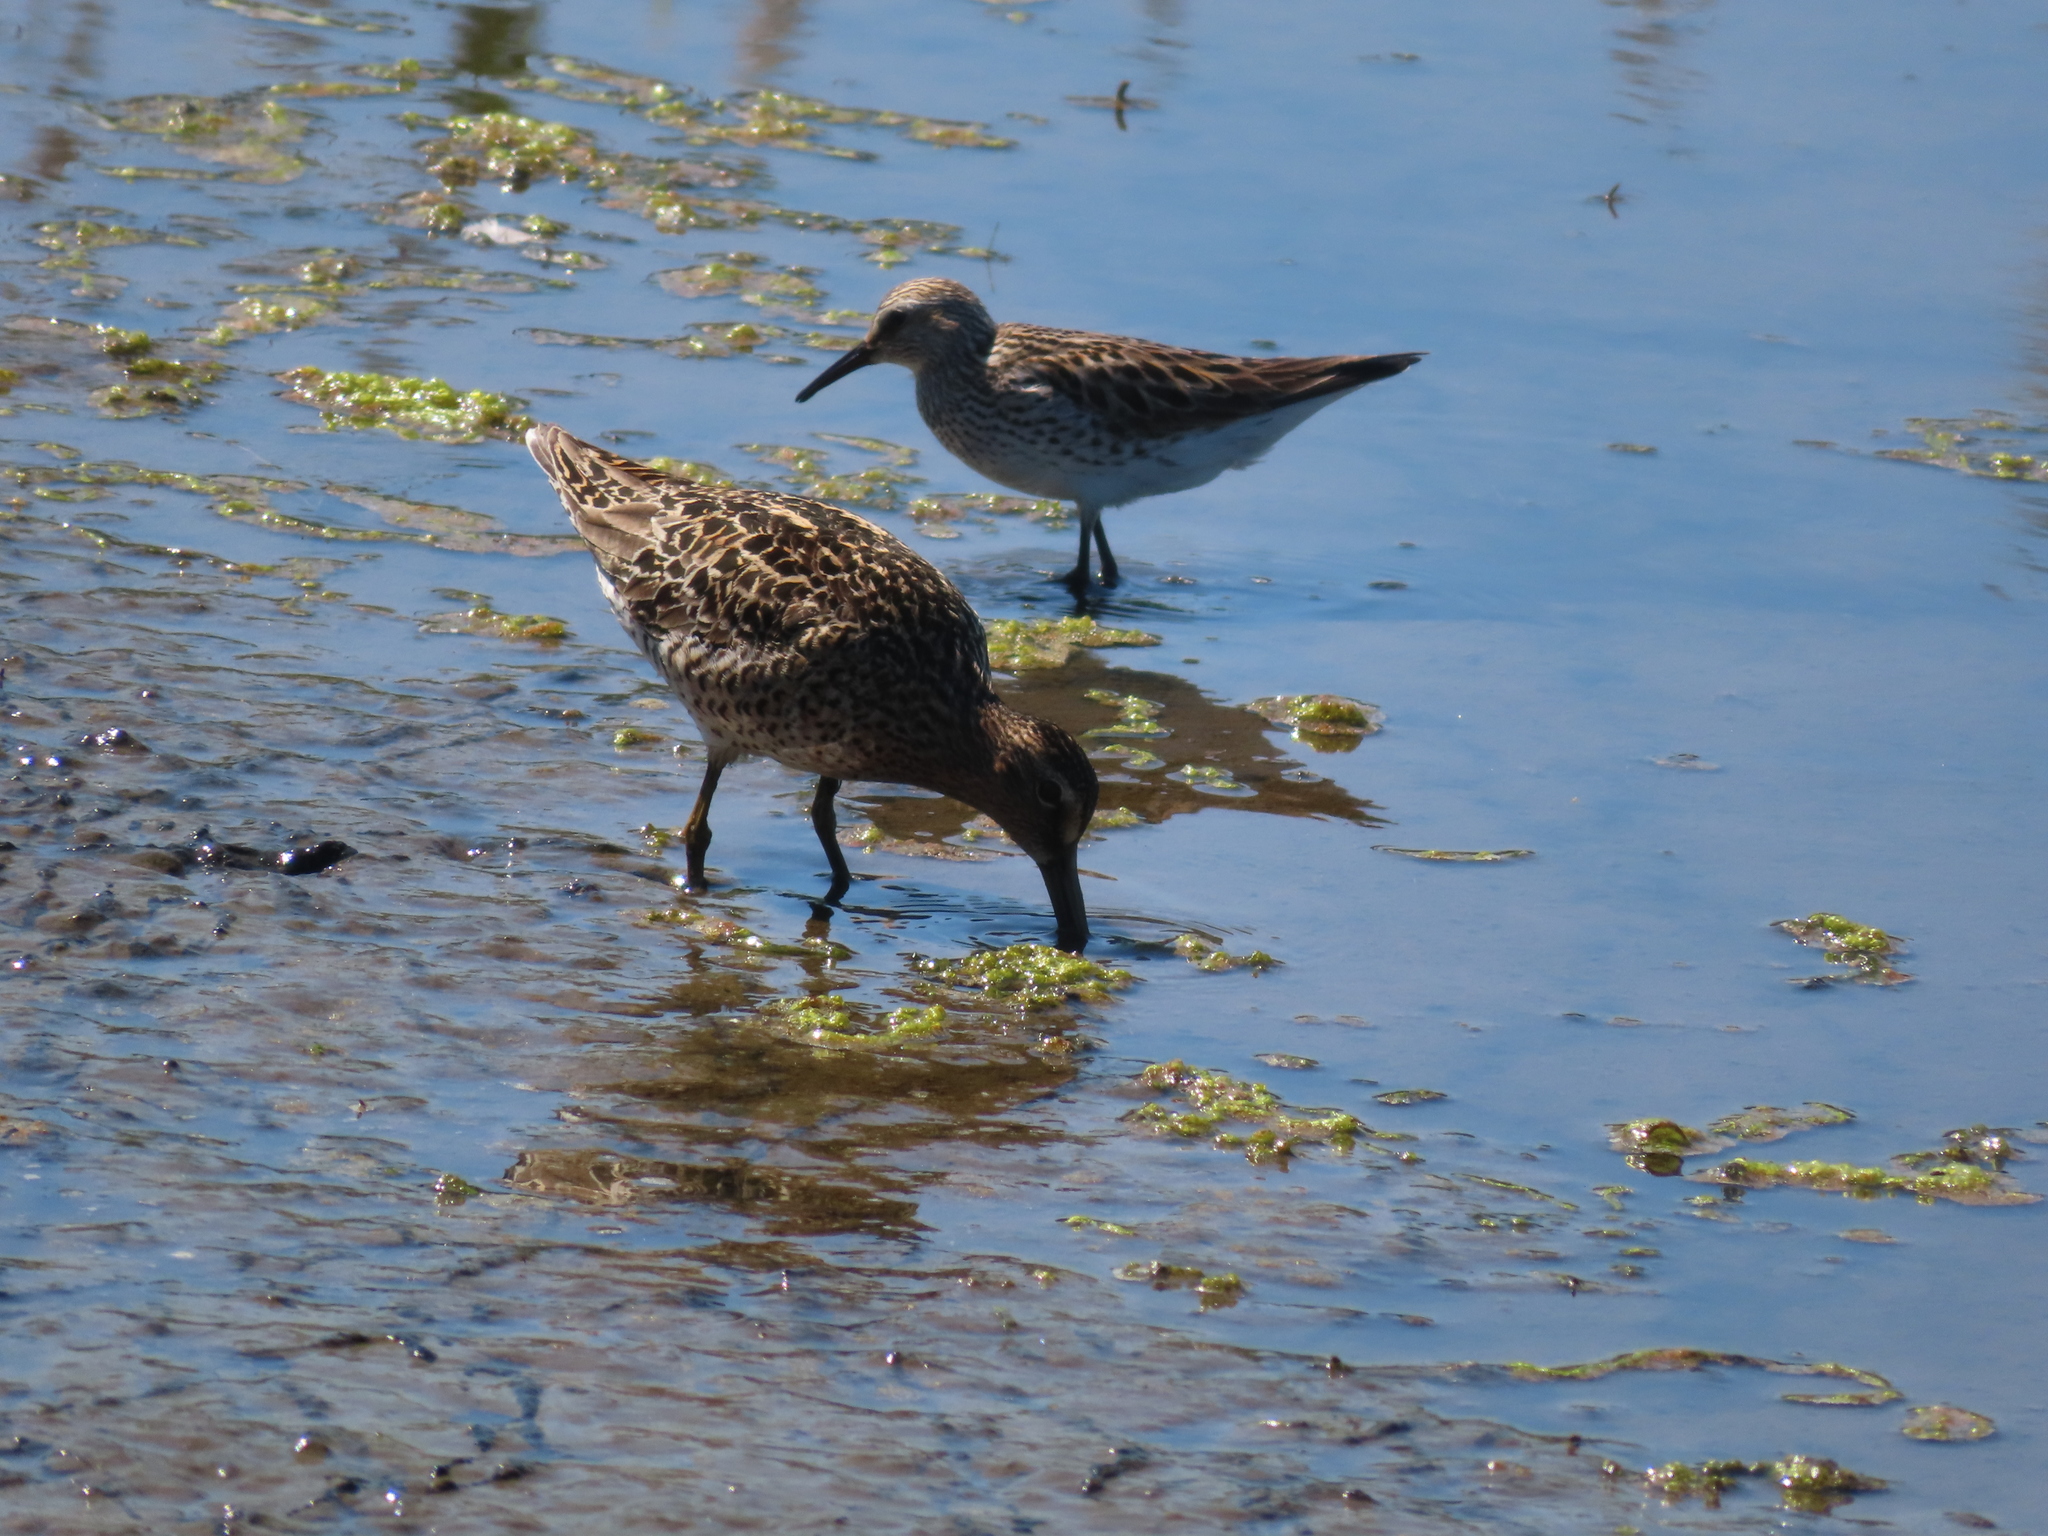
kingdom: Animalia
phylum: Chordata
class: Aves
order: Charadriiformes
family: Scolopacidae
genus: Calidris
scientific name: Calidris fuscicollis
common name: White-rumped sandpiper
